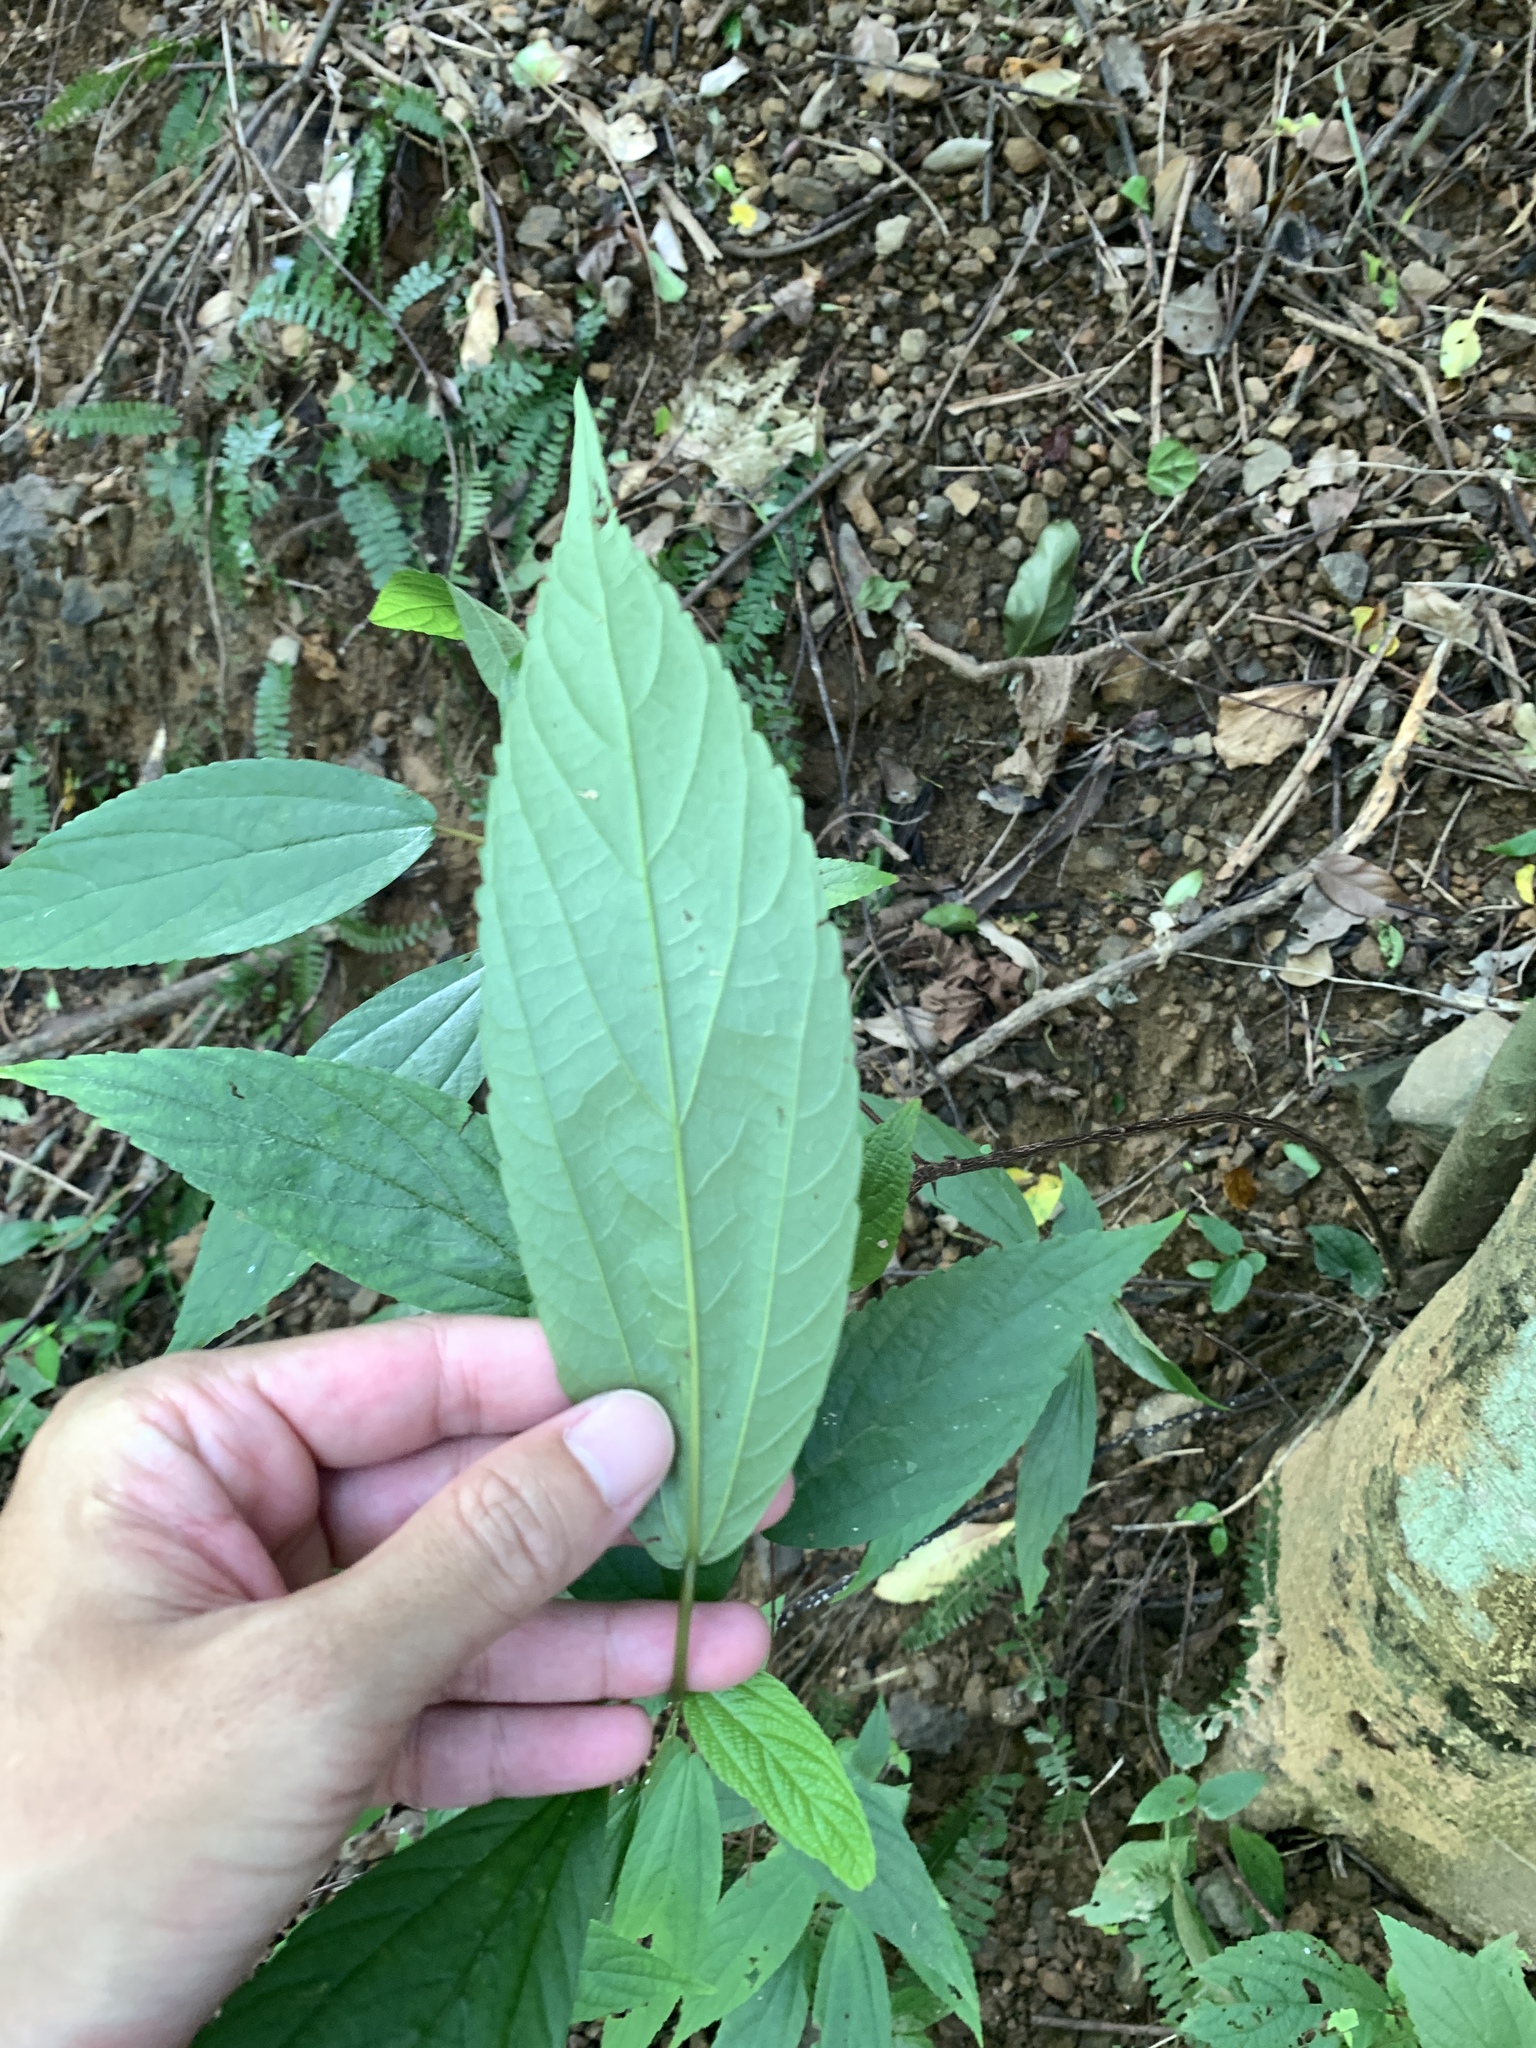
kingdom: Plantae
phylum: Tracheophyta
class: Magnoliopsida
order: Rosales
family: Urticaceae
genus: Boehmeria
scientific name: Boehmeria zollingeriana
